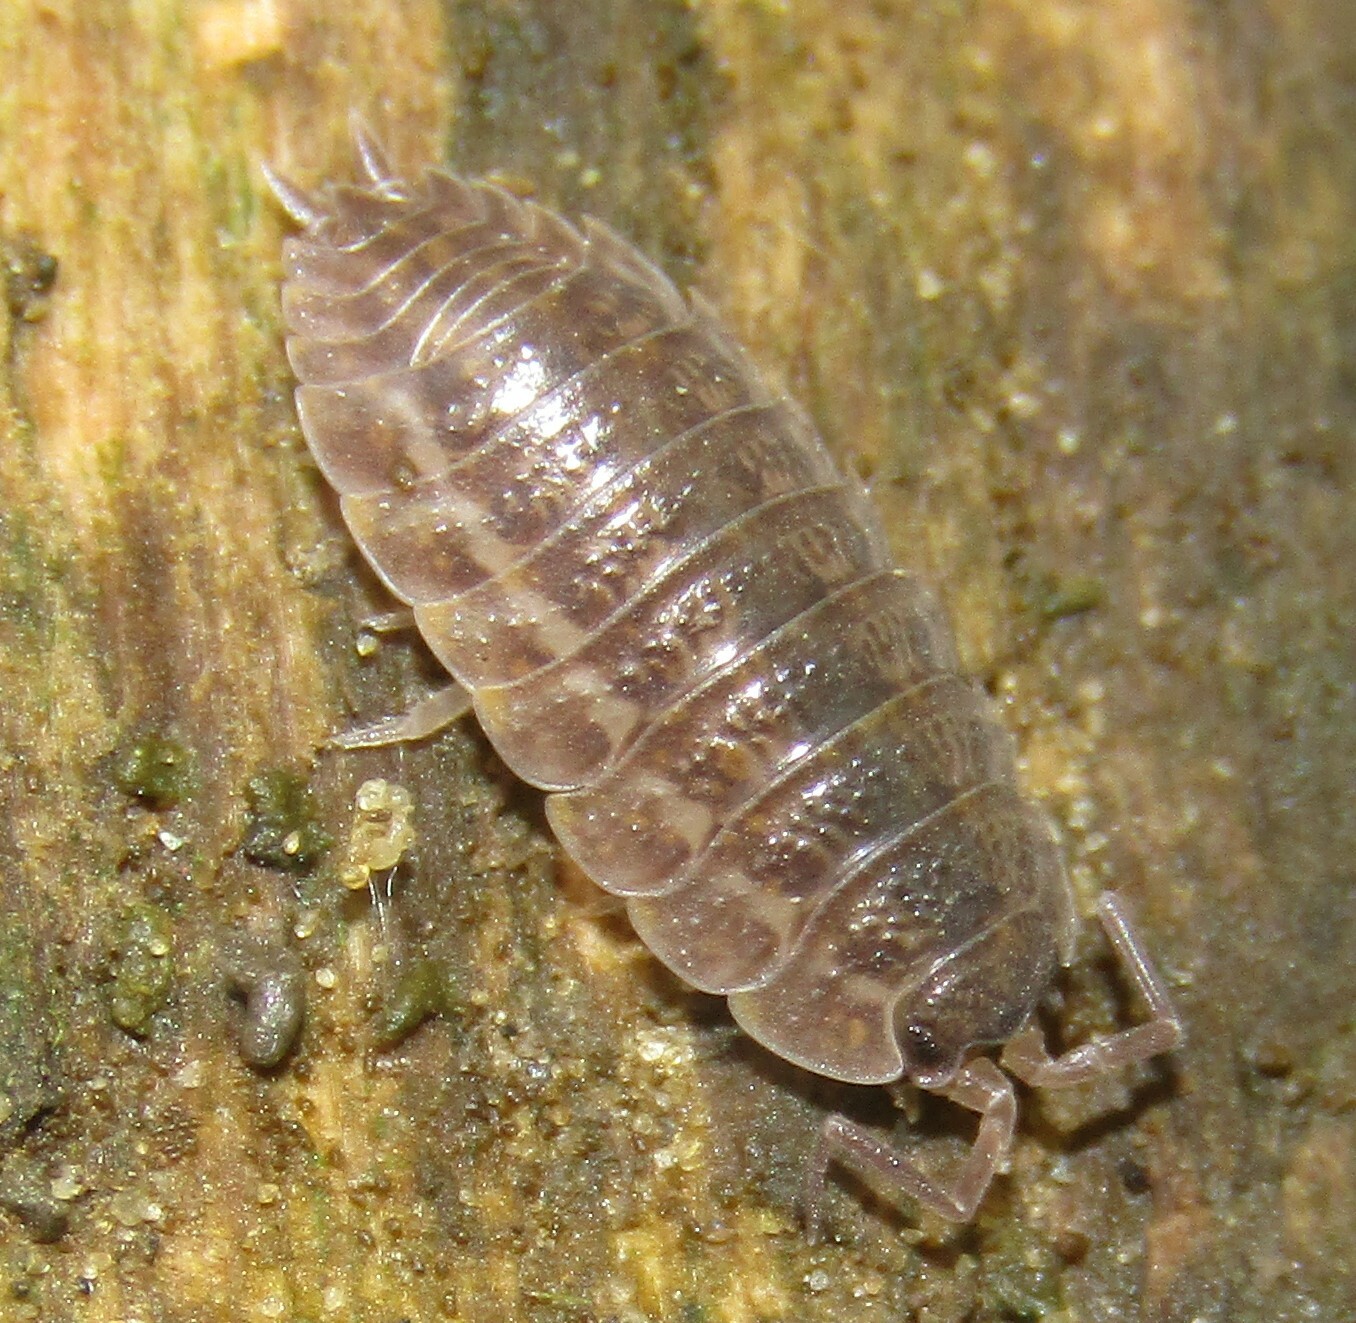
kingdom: Animalia
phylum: Arthropoda
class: Malacostraca
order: Isopoda
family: Trachelipodidae
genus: Trachelipus
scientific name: Trachelipus rathkii
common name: Isopod
